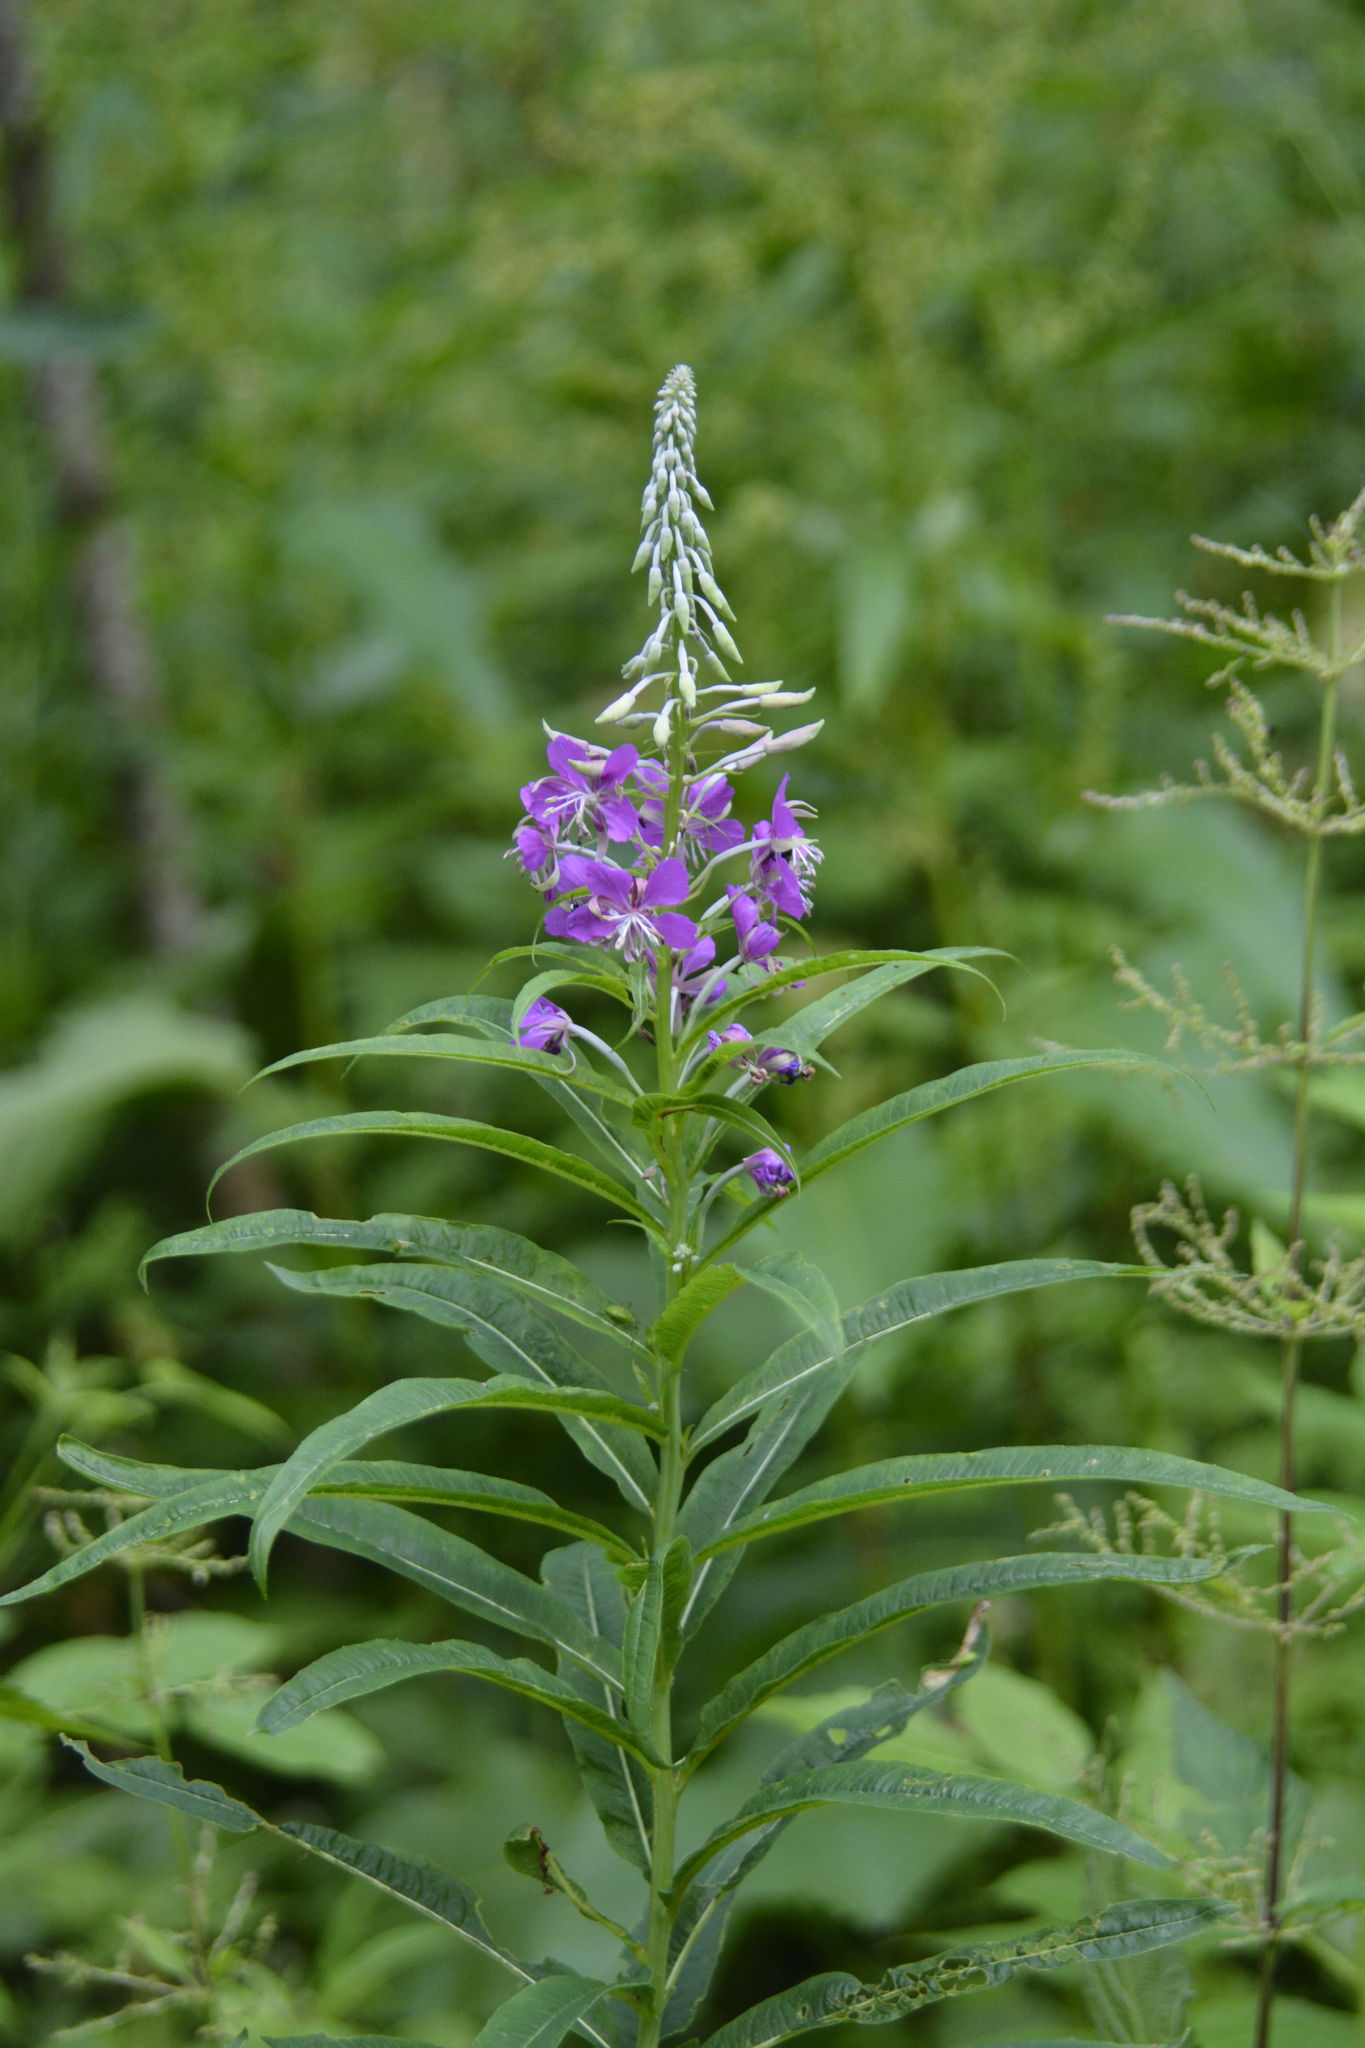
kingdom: Plantae
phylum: Tracheophyta
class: Magnoliopsida
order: Myrtales
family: Onagraceae
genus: Chamaenerion
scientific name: Chamaenerion angustifolium
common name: Fireweed
